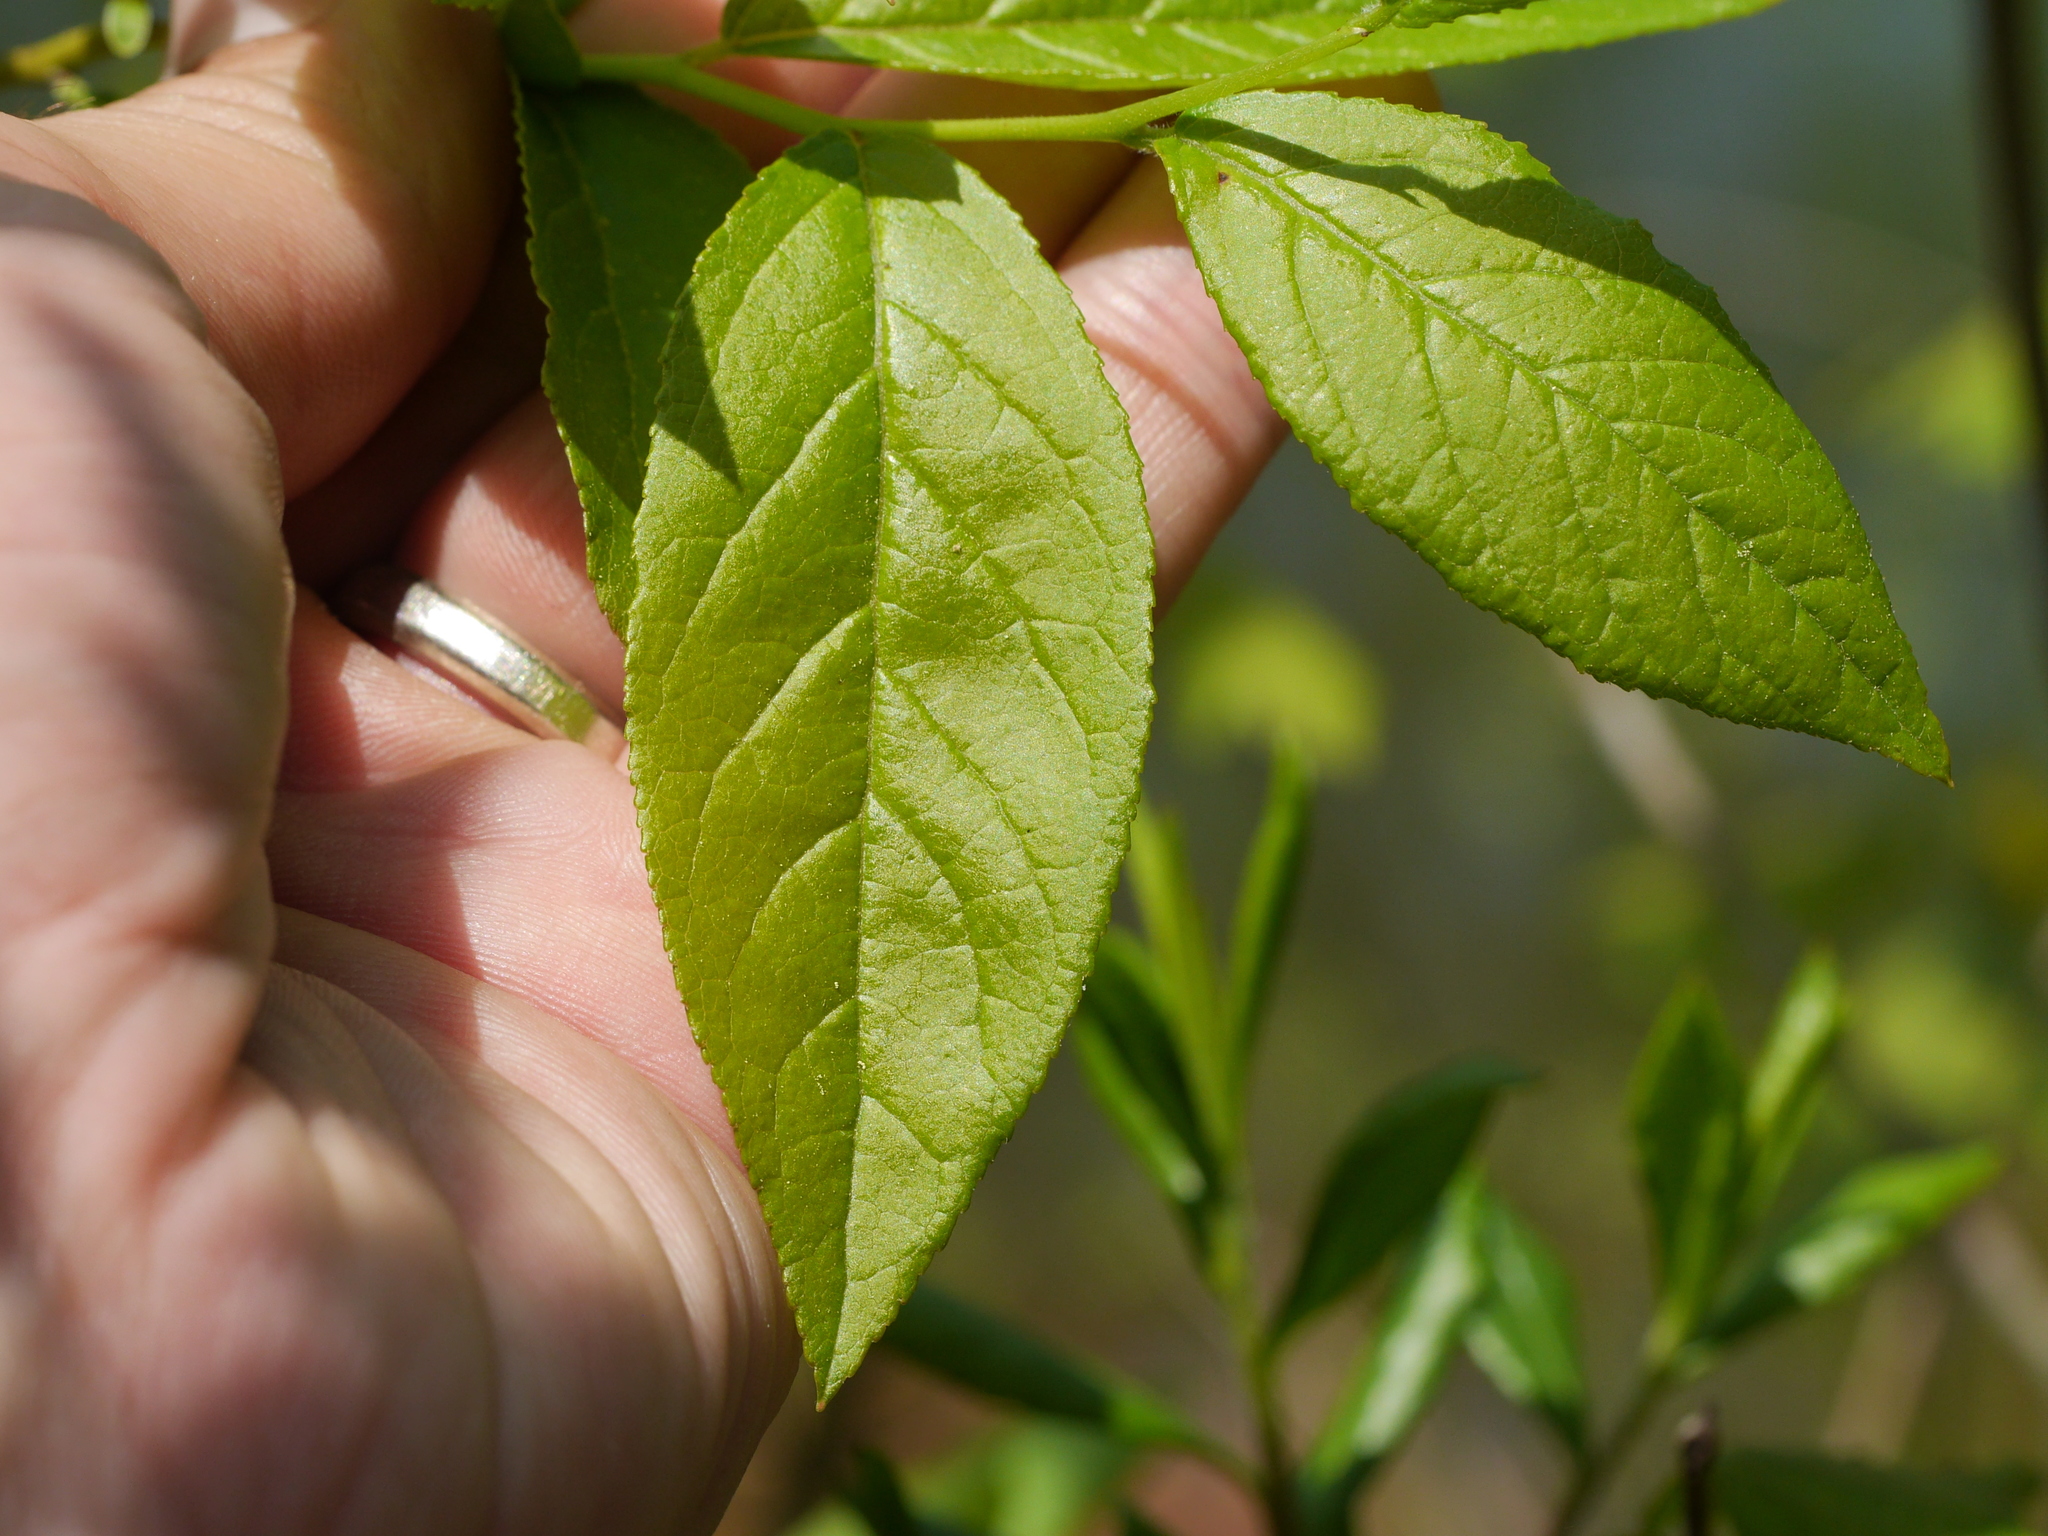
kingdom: Plantae
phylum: Tracheophyta
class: Magnoliopsida
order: Ericales
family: Ericaceae
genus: Eubotrys
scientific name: Eubotrys racemosa
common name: Fetterbush
